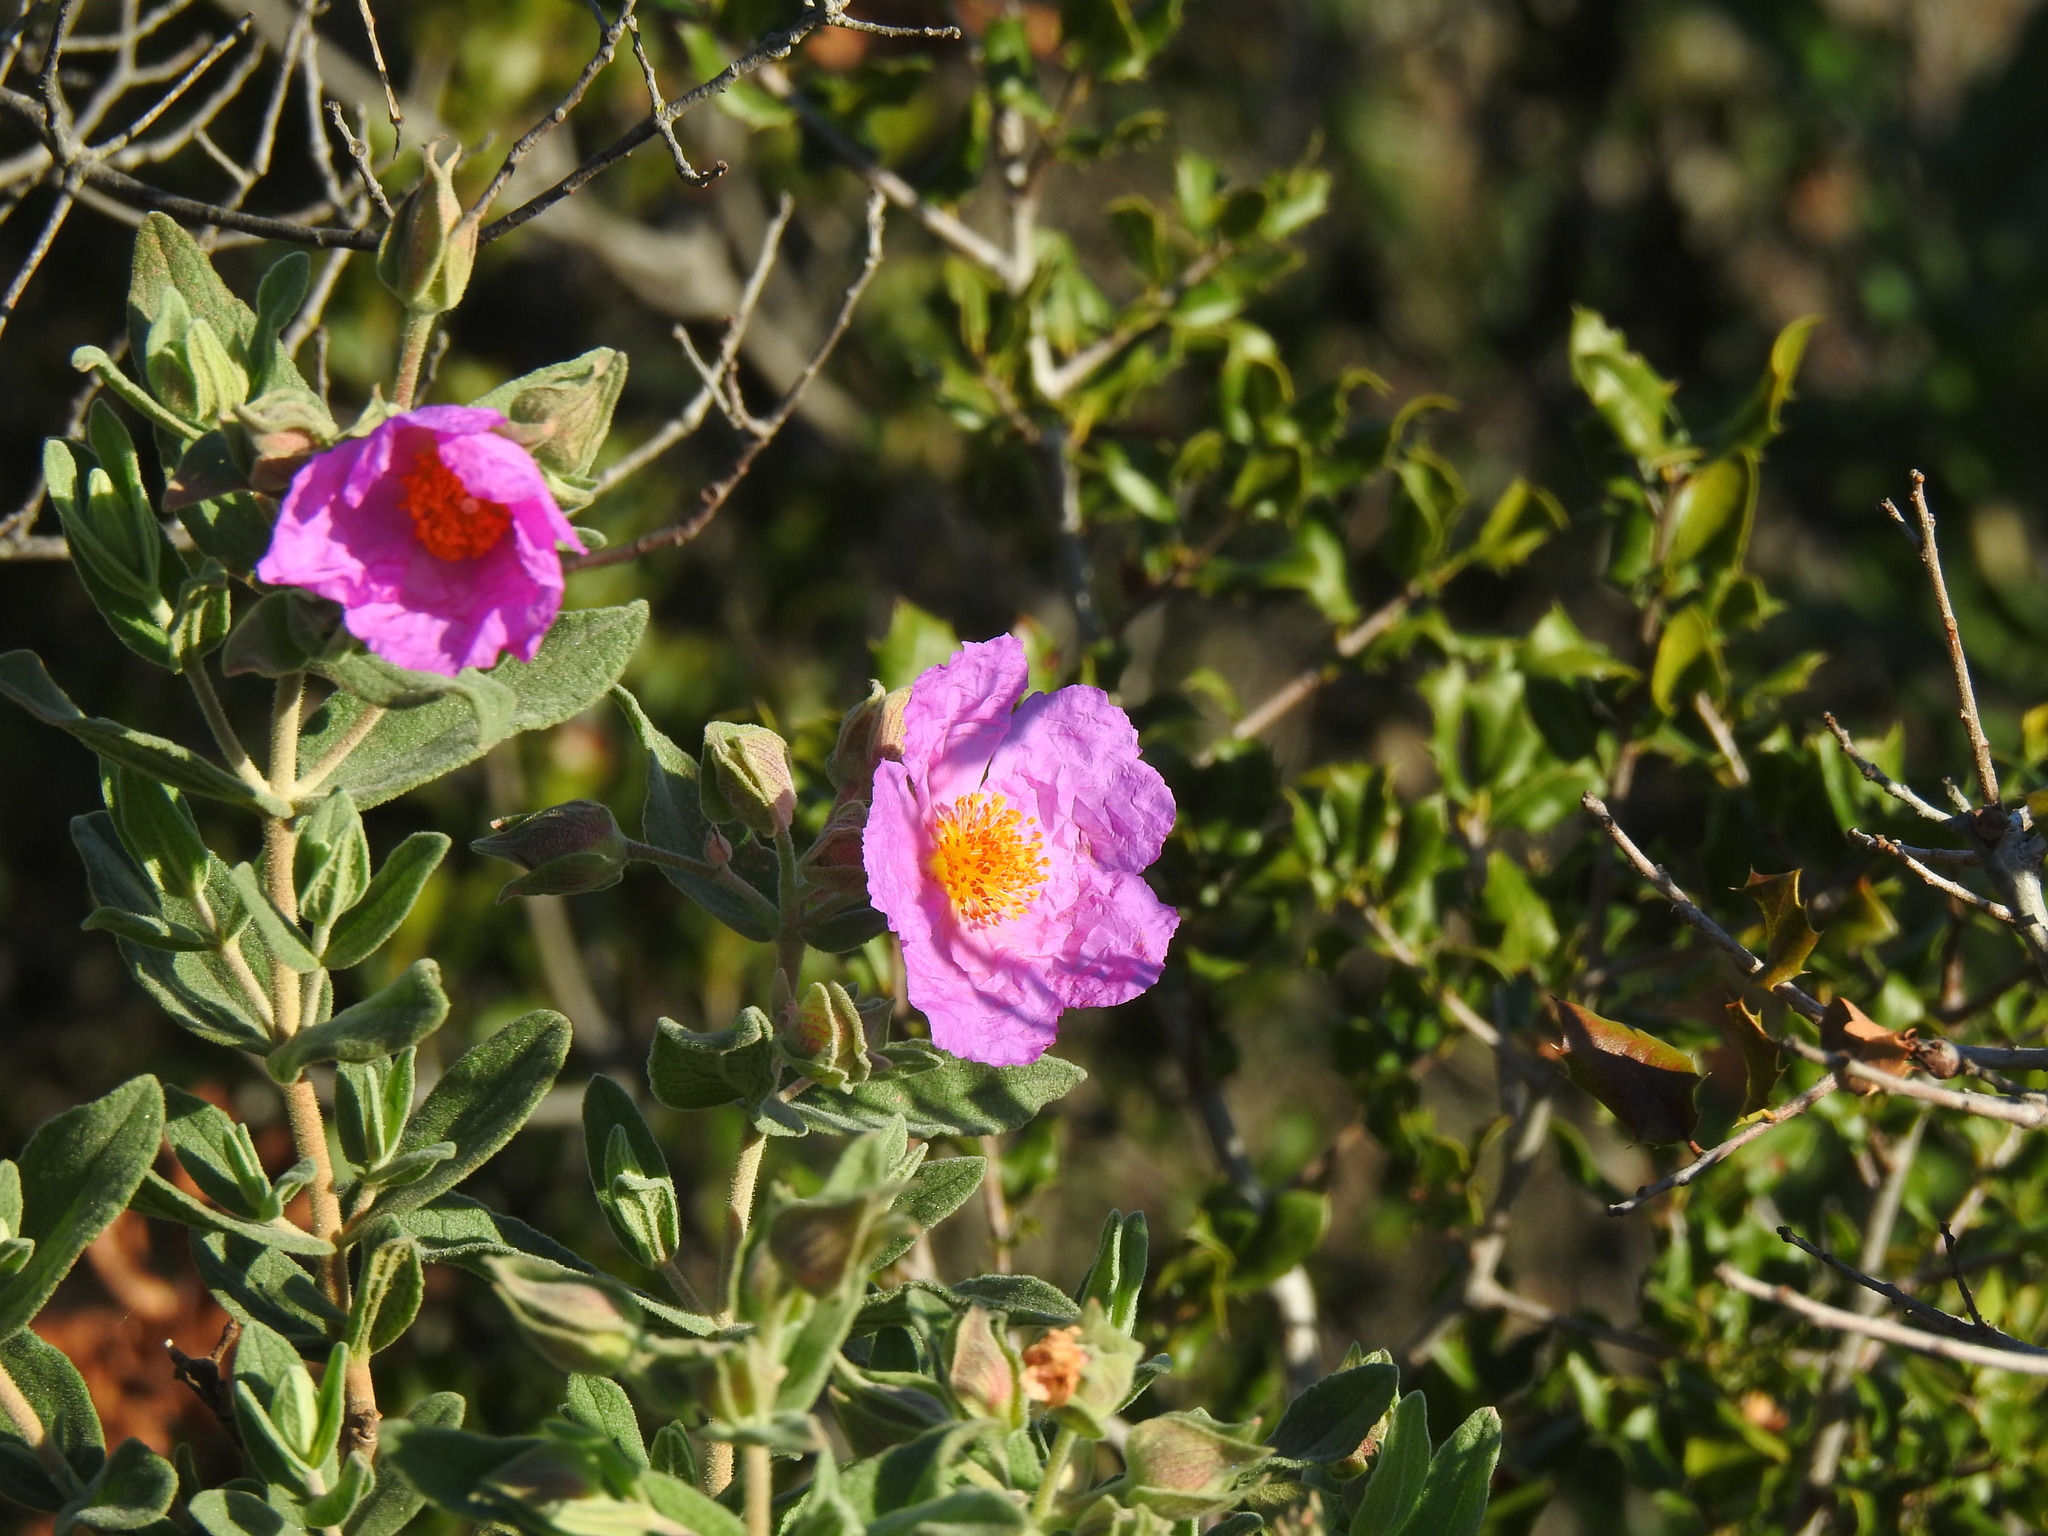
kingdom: Plantae
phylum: Tracheophyta
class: Magnoliopsida
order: Malvales
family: Cistaceae
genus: Cistus
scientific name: Cistus albidus
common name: White-leaf rock-rose
